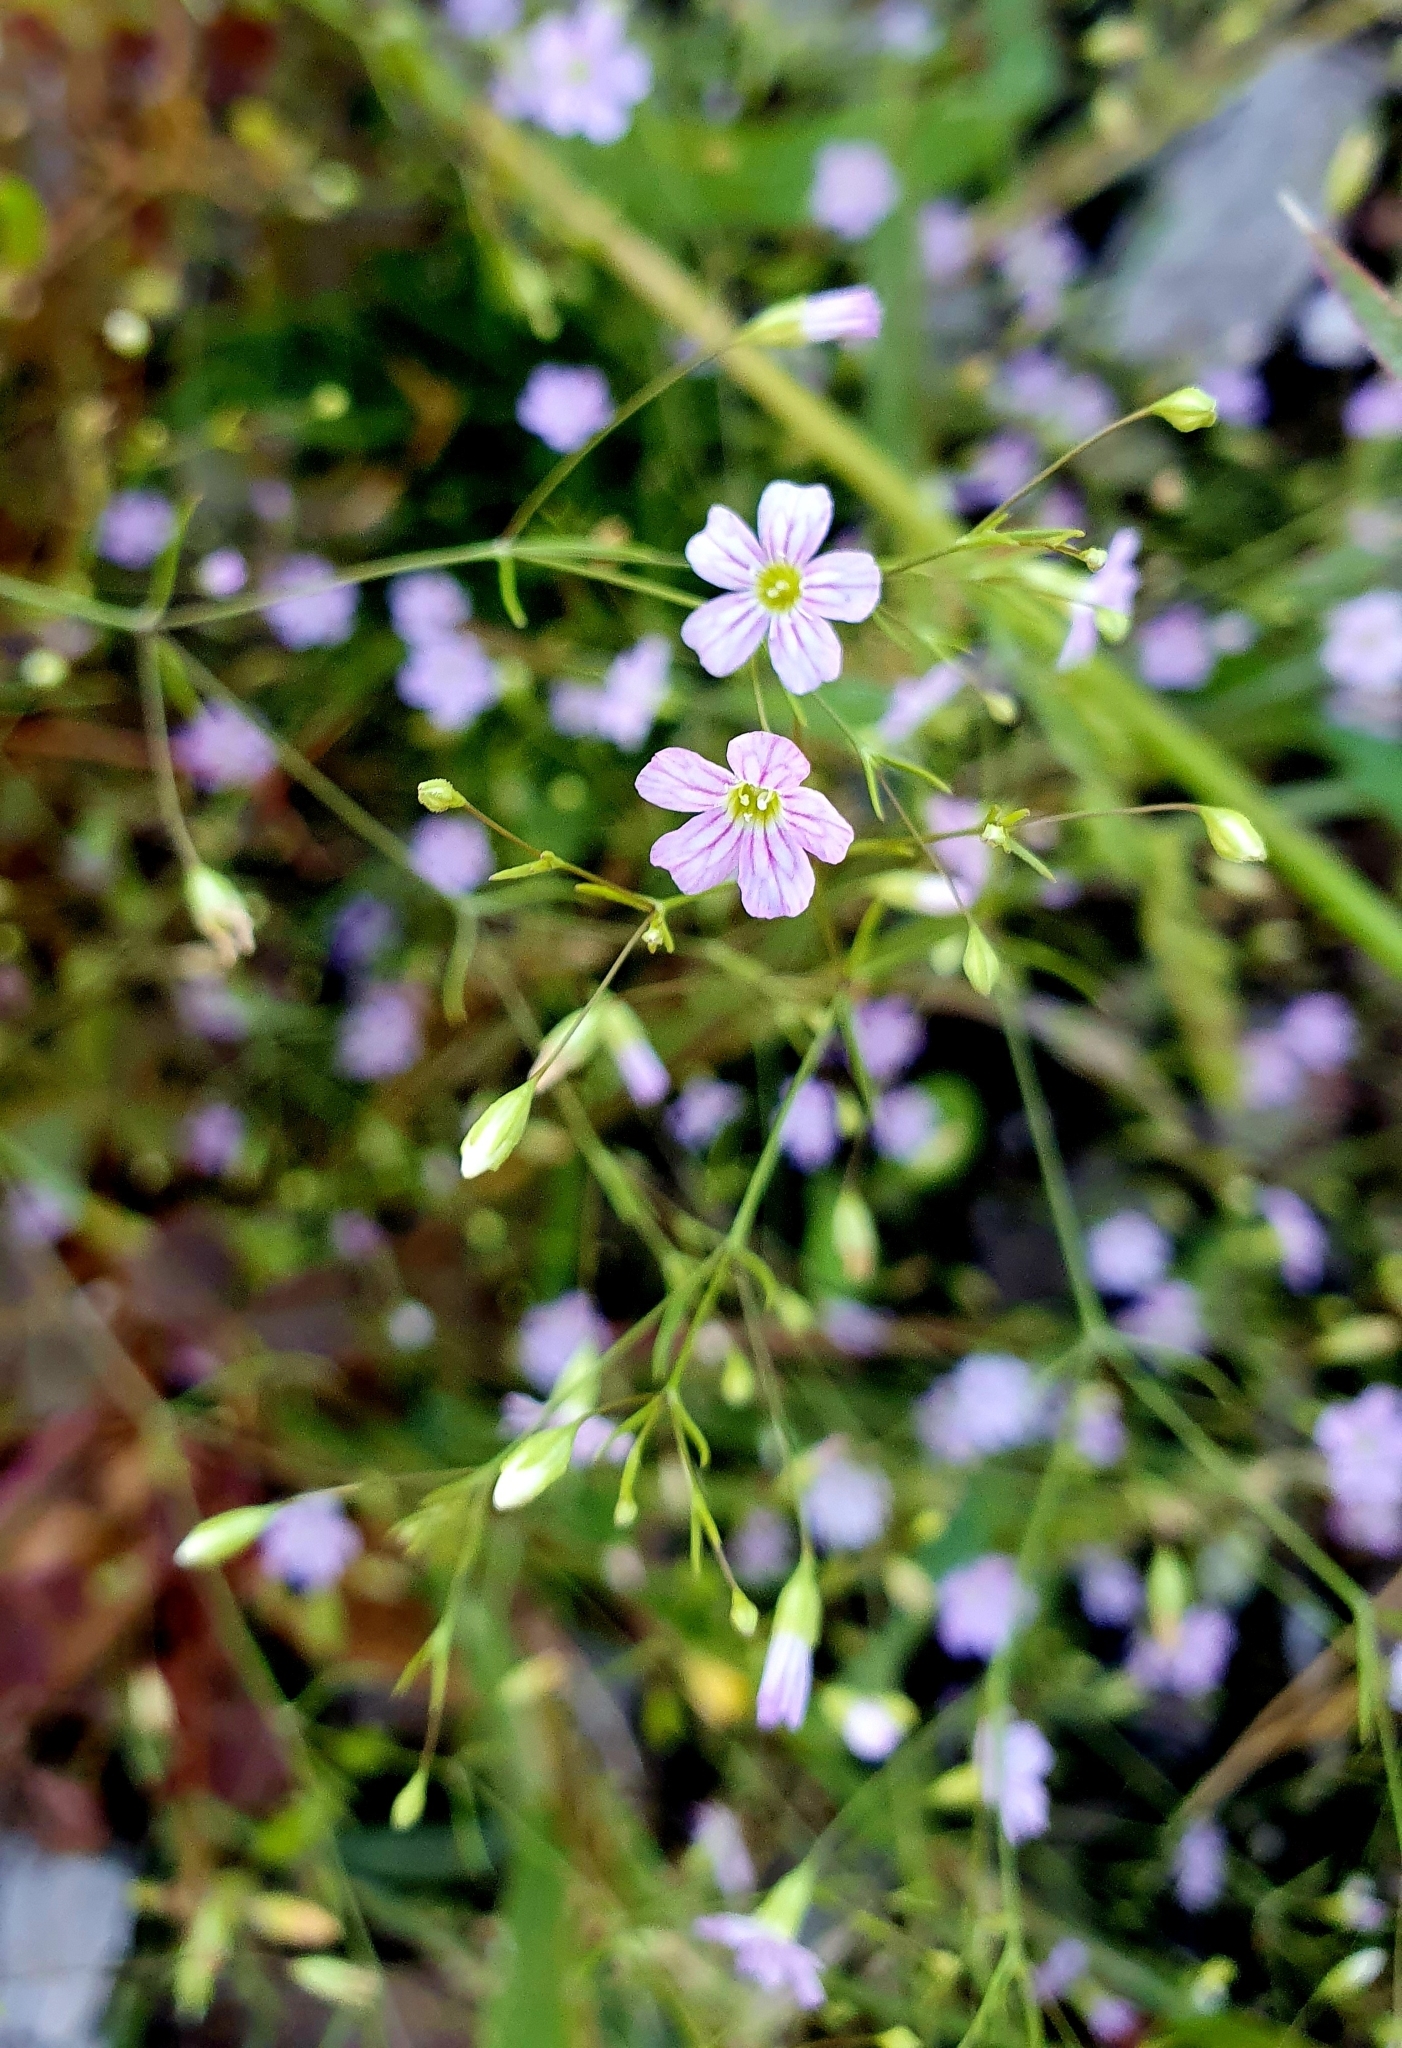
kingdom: Plantae
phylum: Tracheophyta
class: Magnoliopsida
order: Caryophyllales
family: Caryophyllaceae
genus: Psammophiliella
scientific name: Psammophiliella muralis
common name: Cushion baby's-breath
